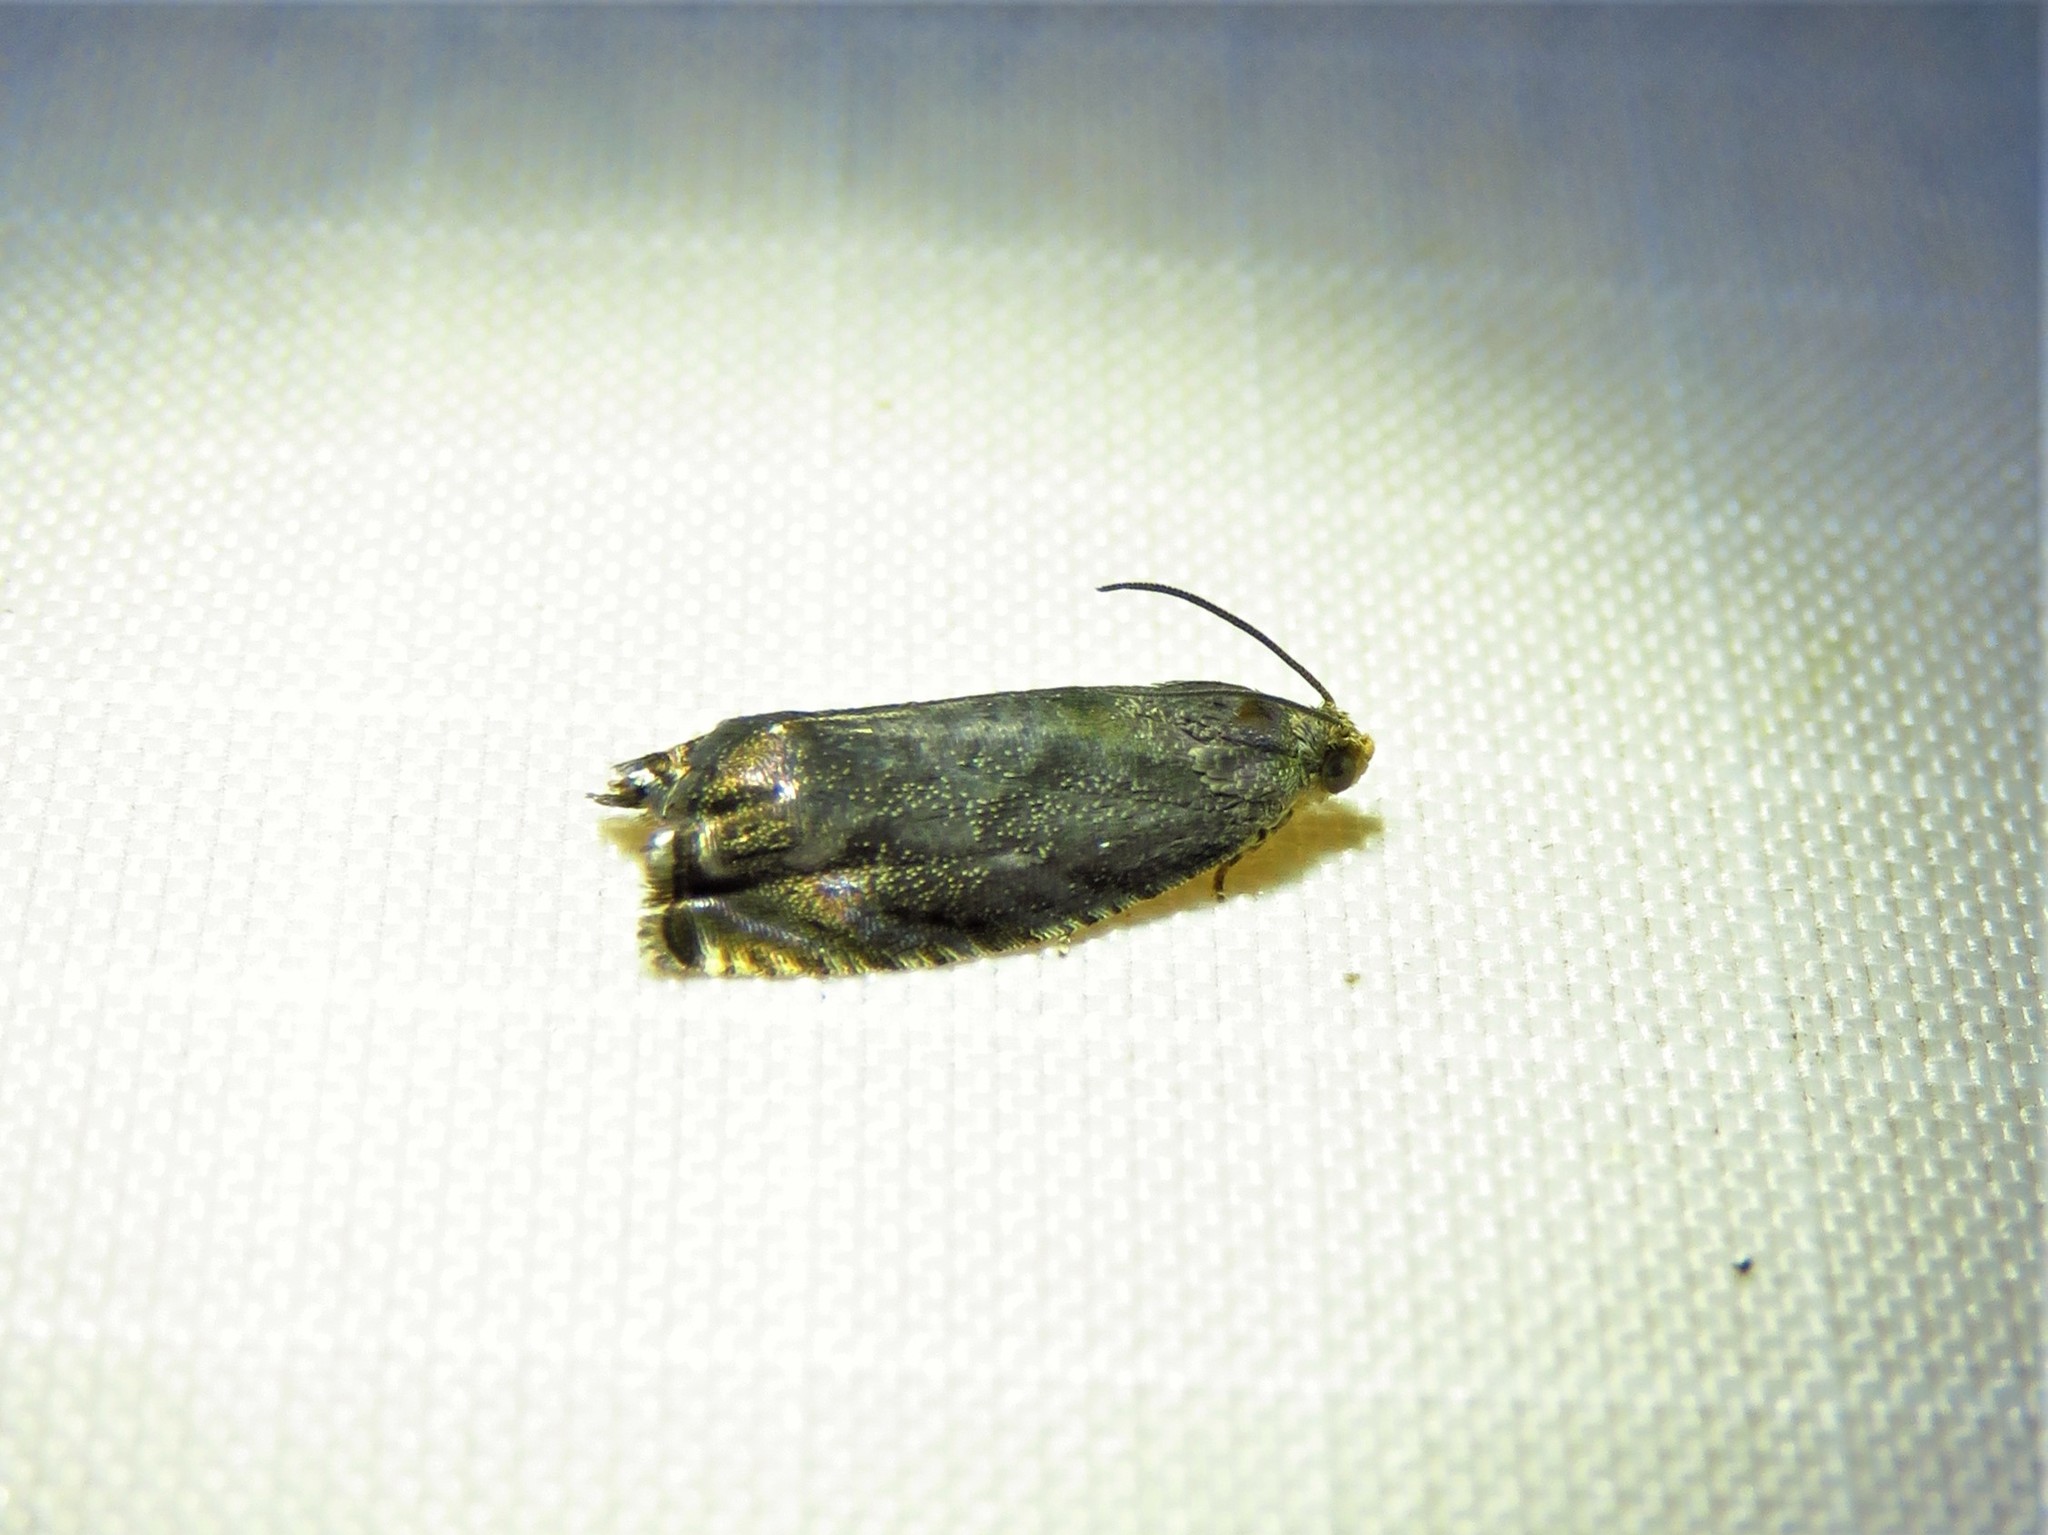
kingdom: Animalia
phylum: Arthropoda
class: Insecta
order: Lepidoptera
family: Tortricidae
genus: Cydia
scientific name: Cydia caryana
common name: Hickory shuckworm moth
